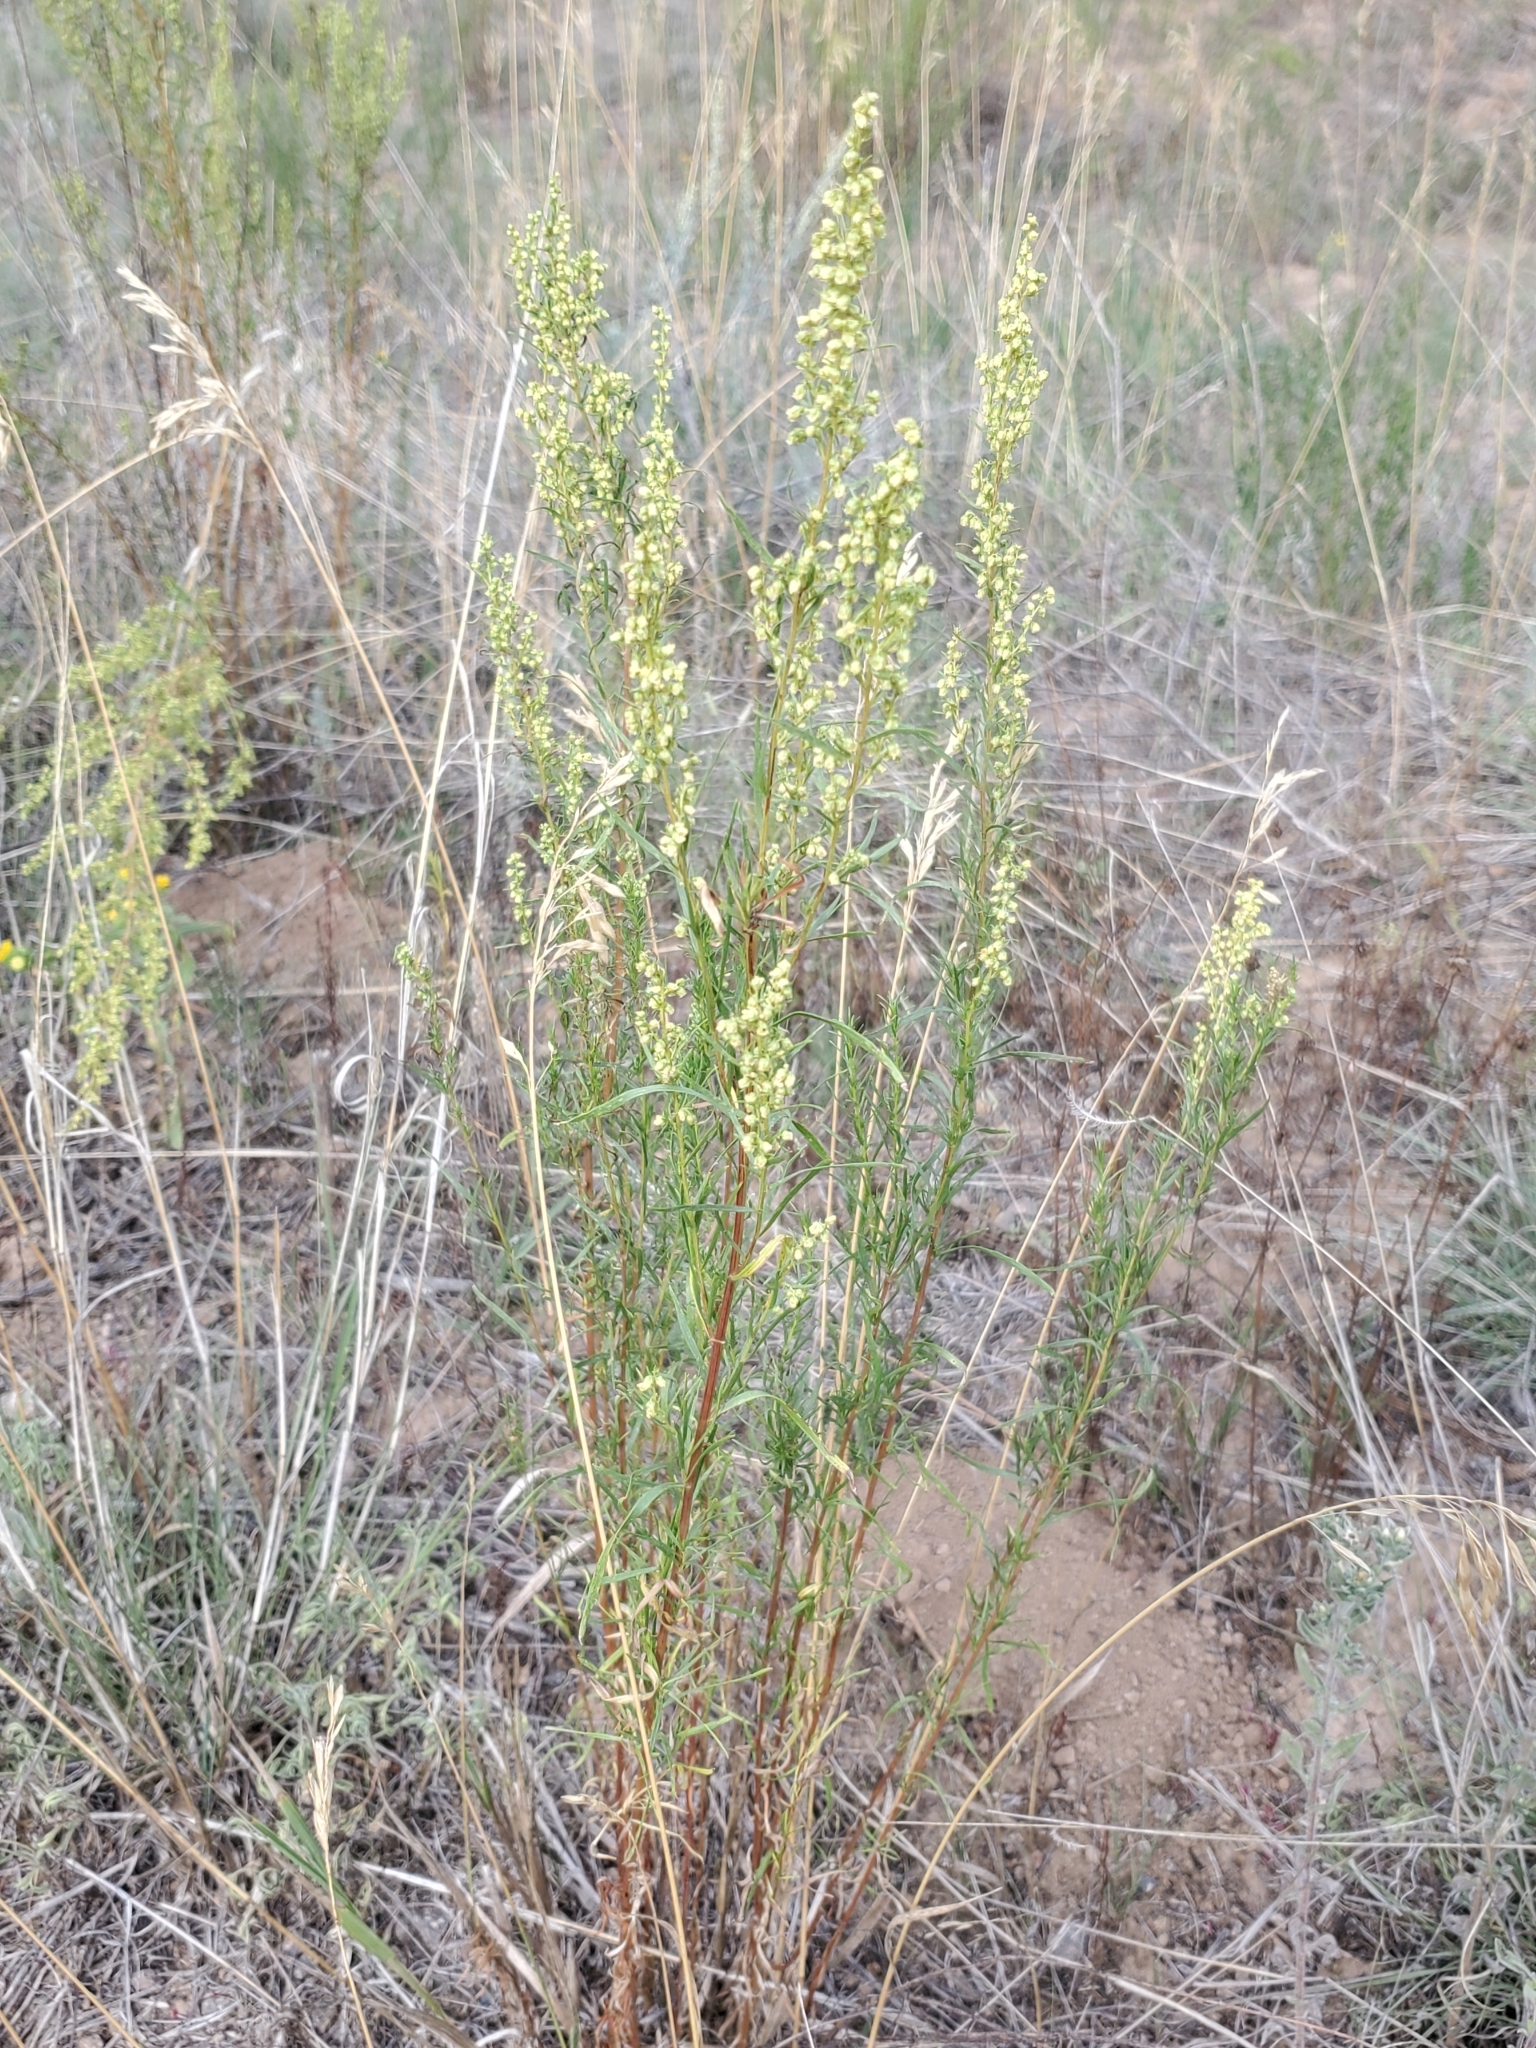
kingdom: Plantae
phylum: Tracheophyta
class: Magnoliopsida
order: Asterales
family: Asteraceae
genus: Artemisia
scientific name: Artemisia dracunculus
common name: Tarragon
